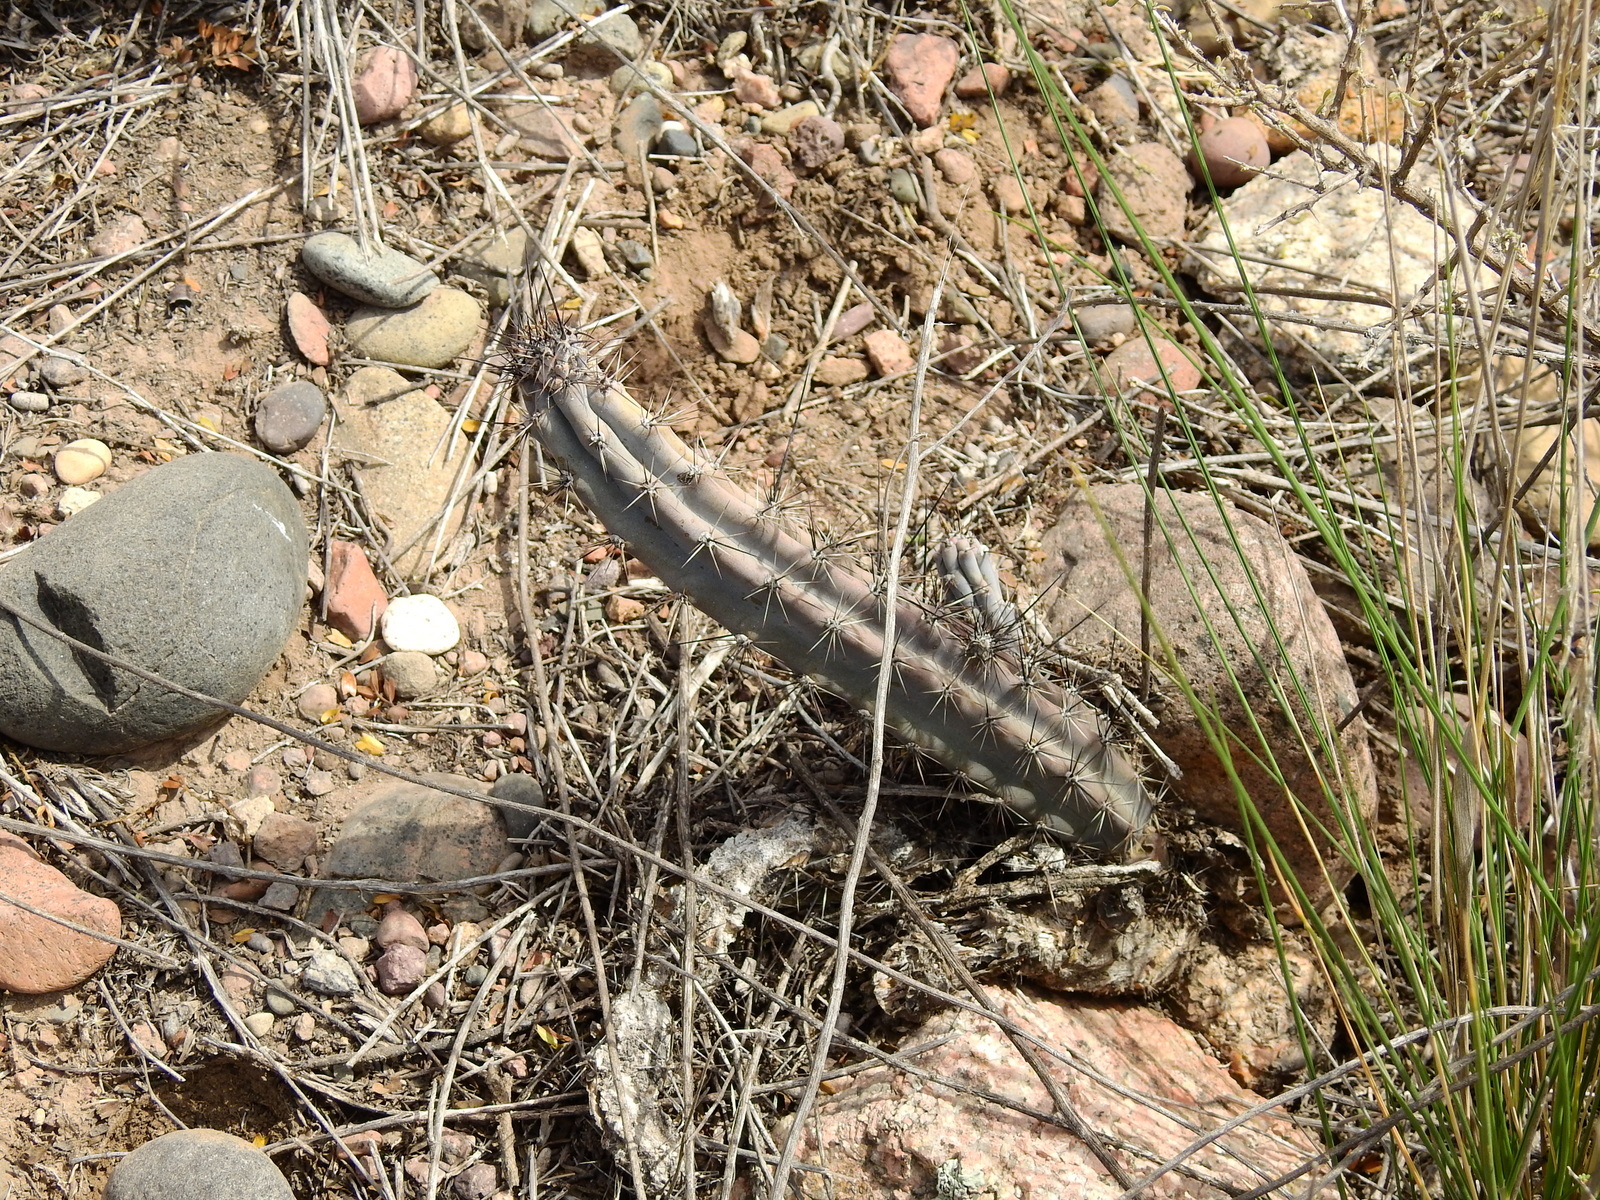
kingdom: Plantae
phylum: Tracheophyta
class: Magnoliopsida
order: Caryophyllales
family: Cactaceae
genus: Cereus
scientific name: Cereus aethiops
